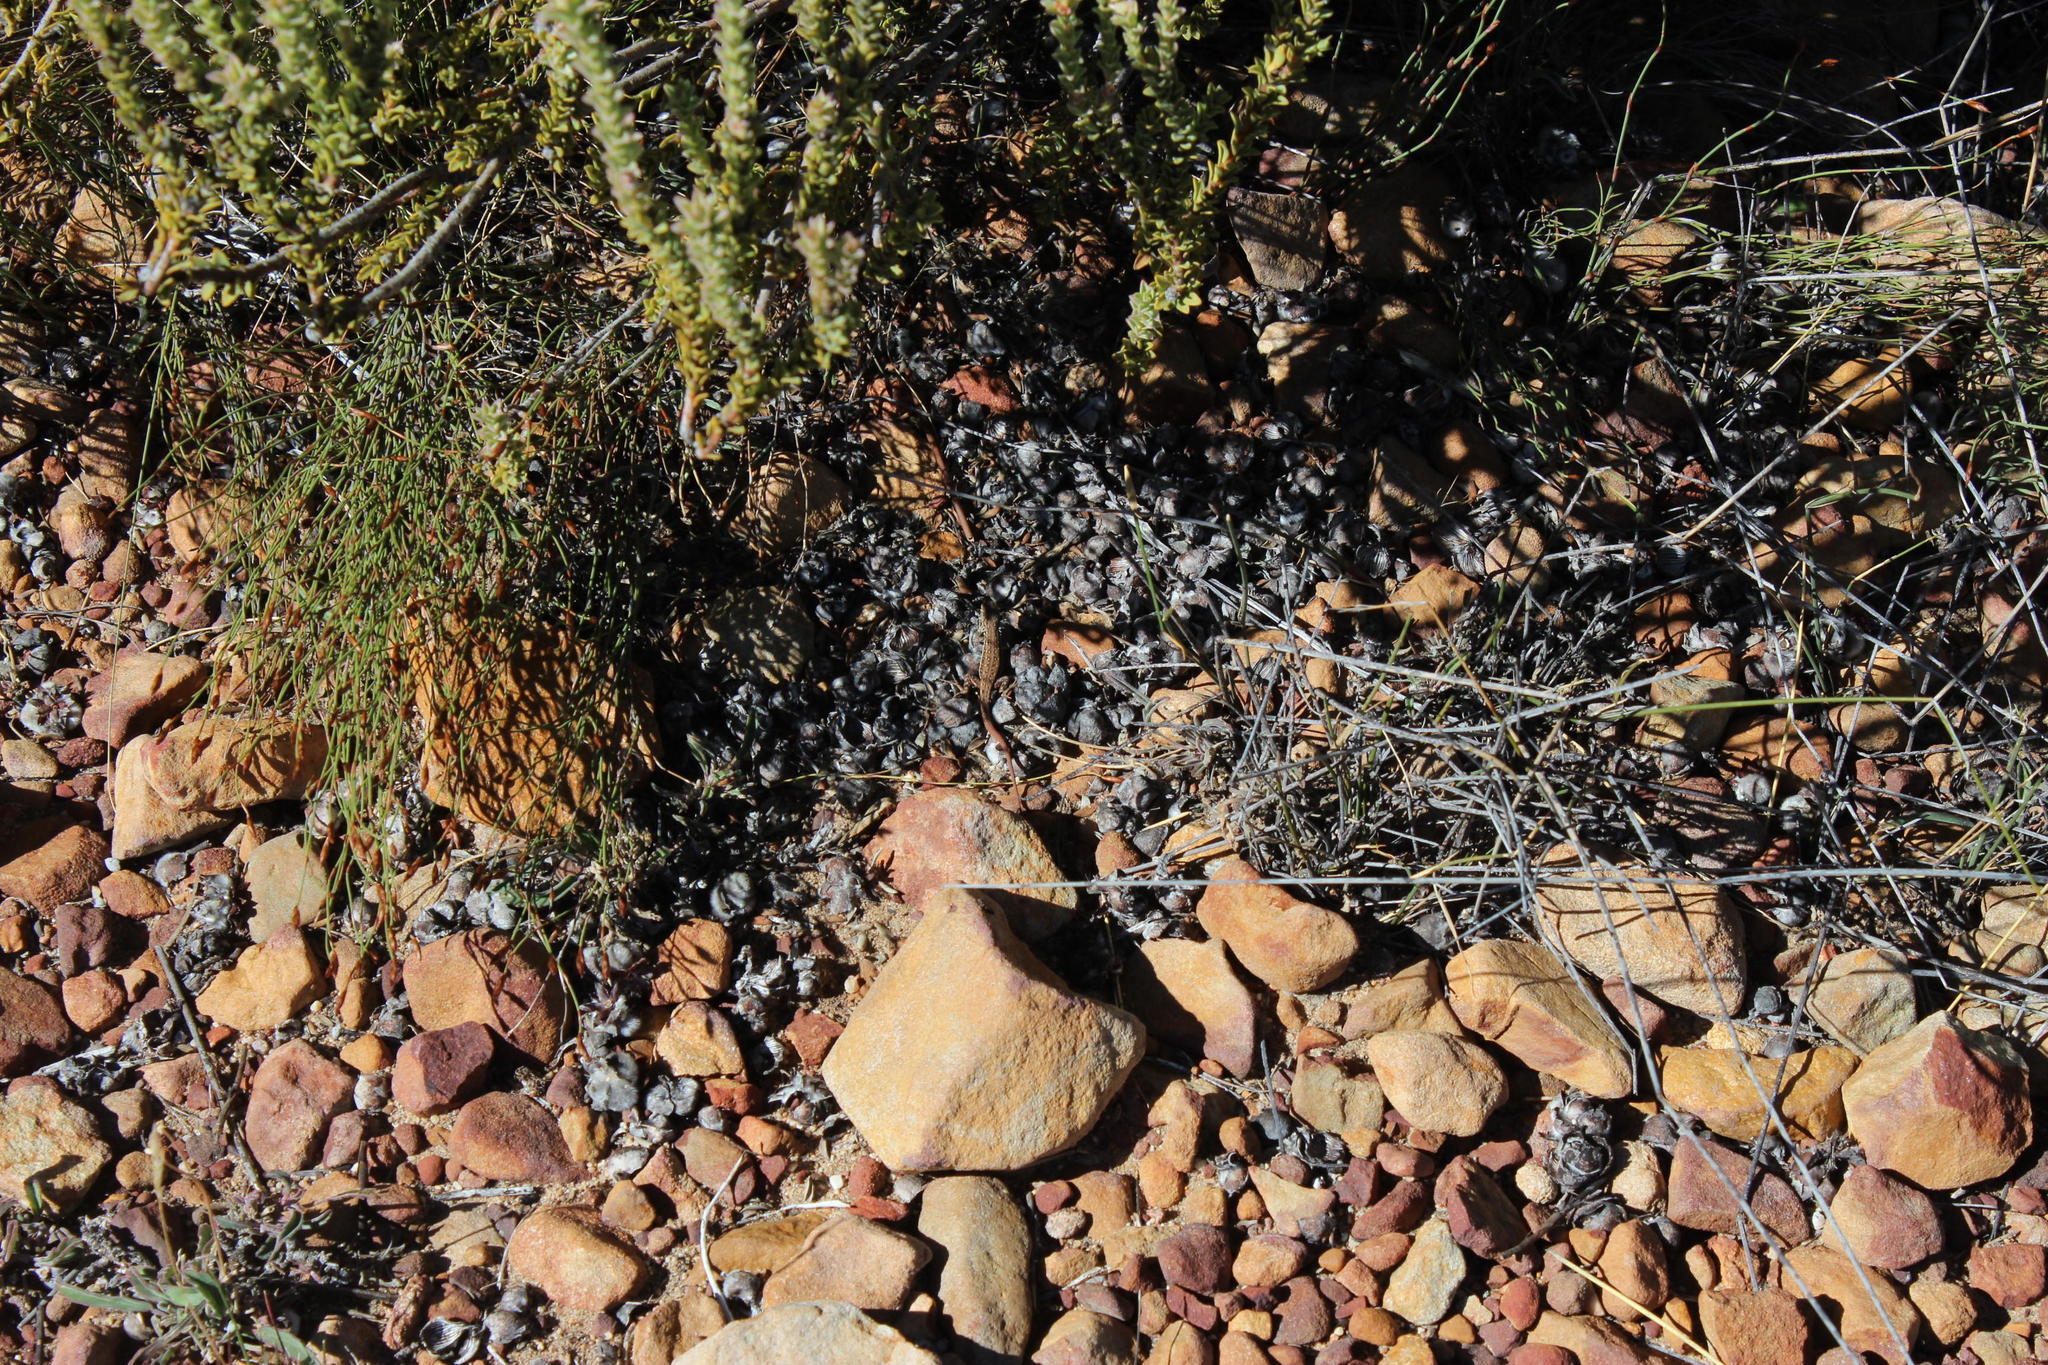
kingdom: Plantae
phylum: Tracheophyta
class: Magnoliopsida
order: Proteales
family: Proteaceae
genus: Leucadendron
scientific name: Leucadendron dubium
